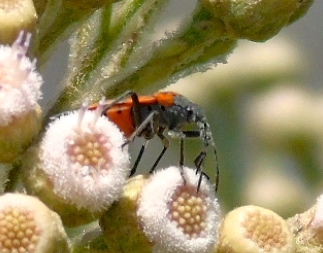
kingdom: Animalia
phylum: Arthropoda
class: Insecta
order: Hemiptera
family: Lygaeidae
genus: Lygaeus
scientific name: Lygaeus reclivatus
